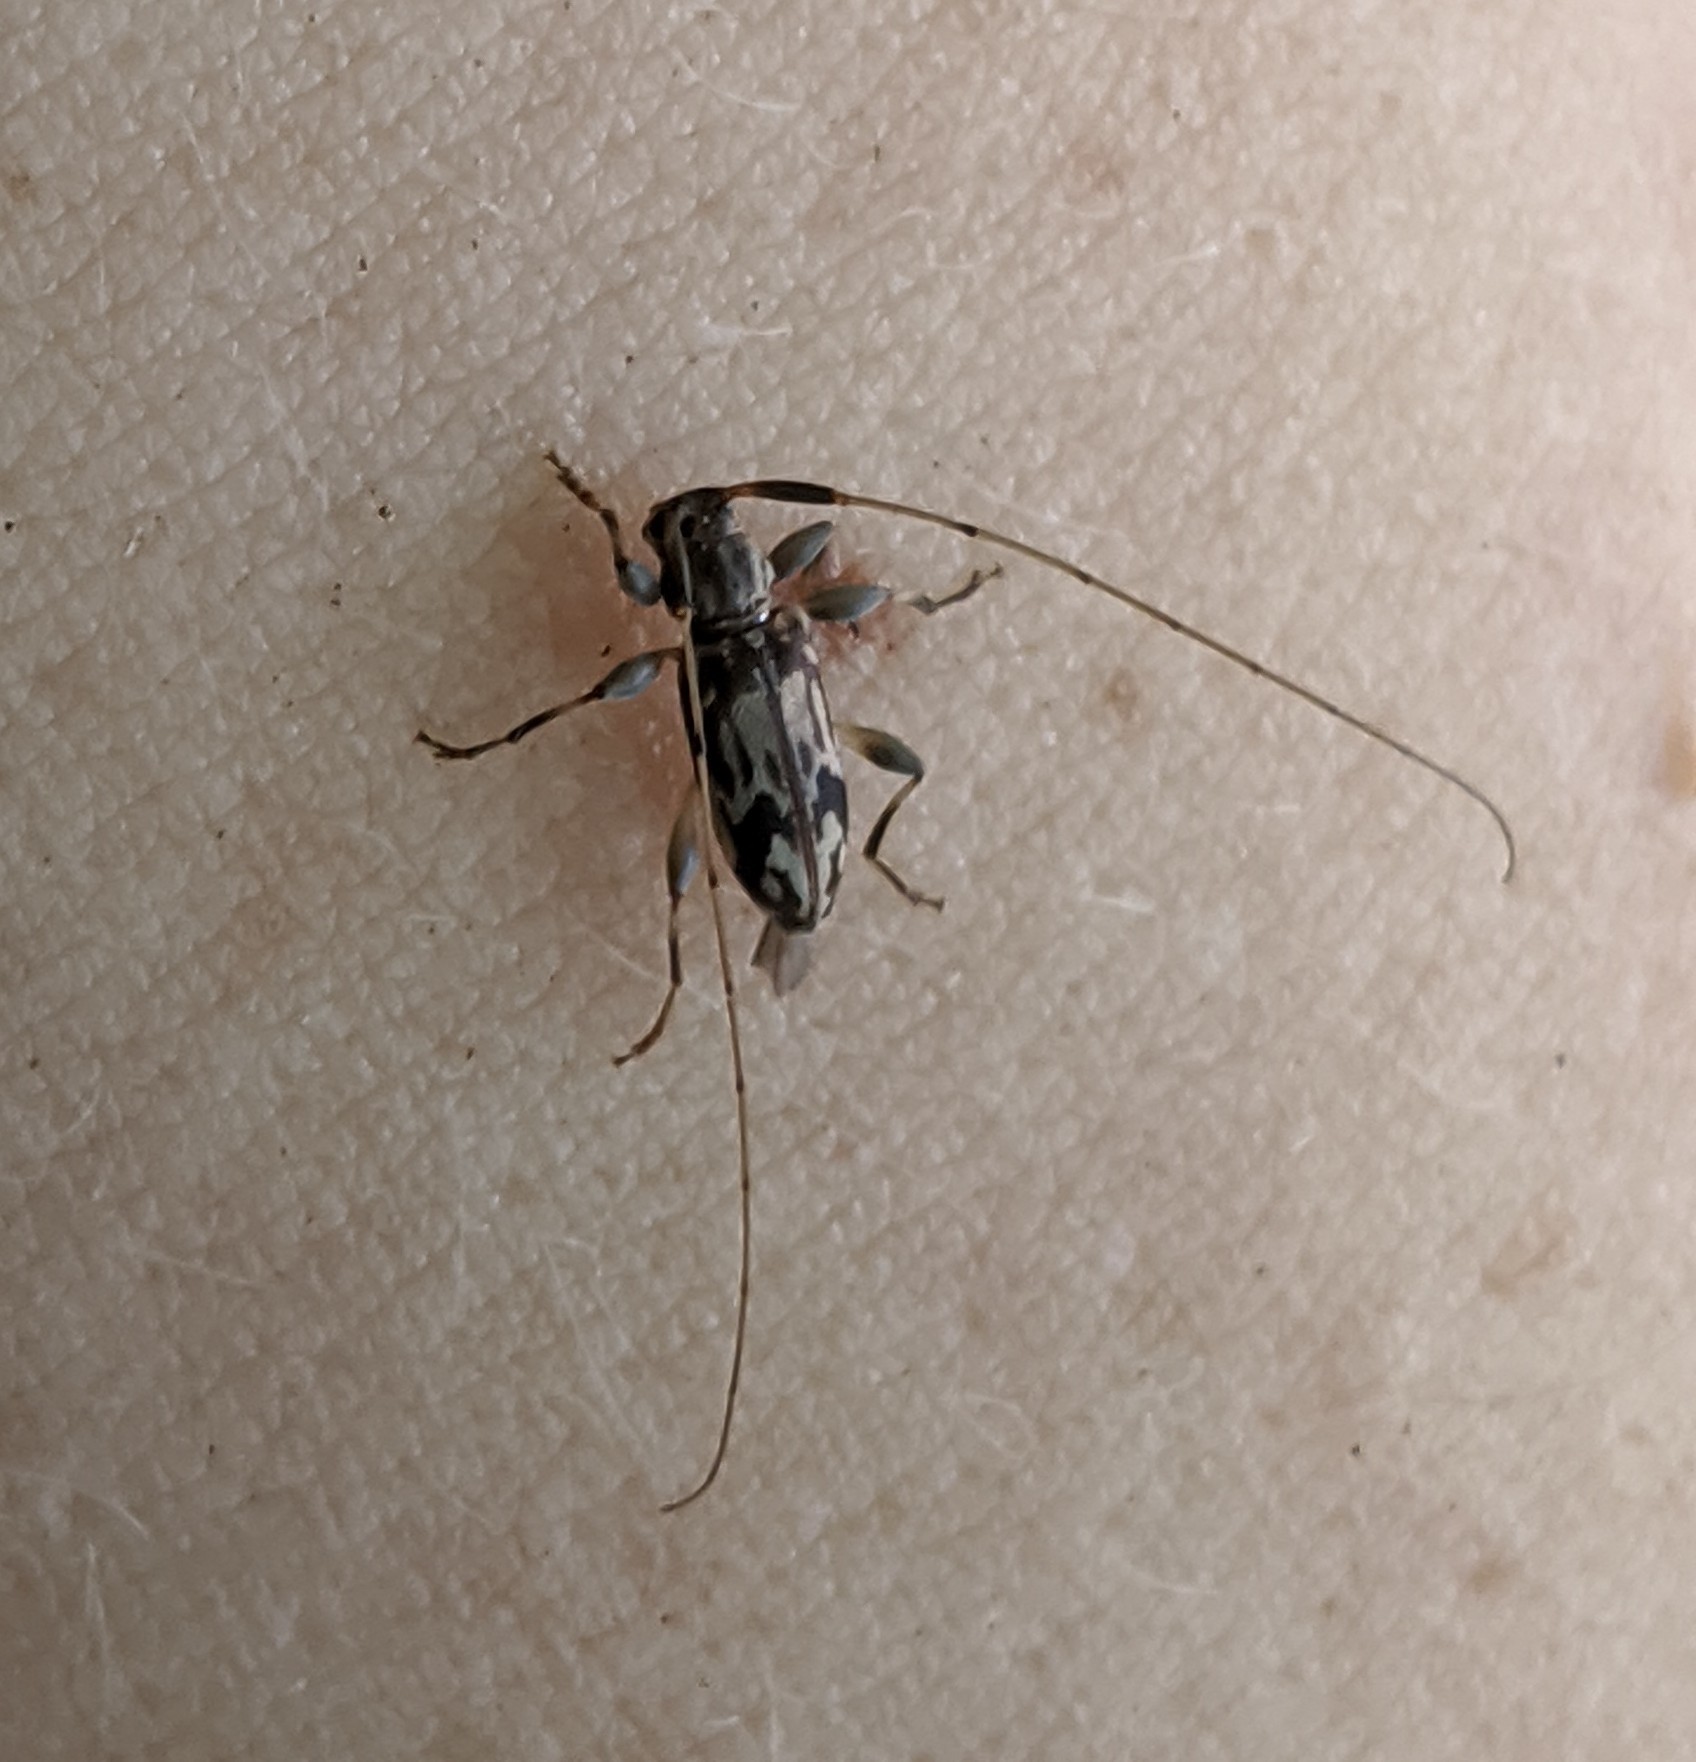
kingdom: Animalia
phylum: Arthropoda
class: Insecta
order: Coleoptera
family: Cerambycidae
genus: Urgleptes
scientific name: Urgleptes signatus
